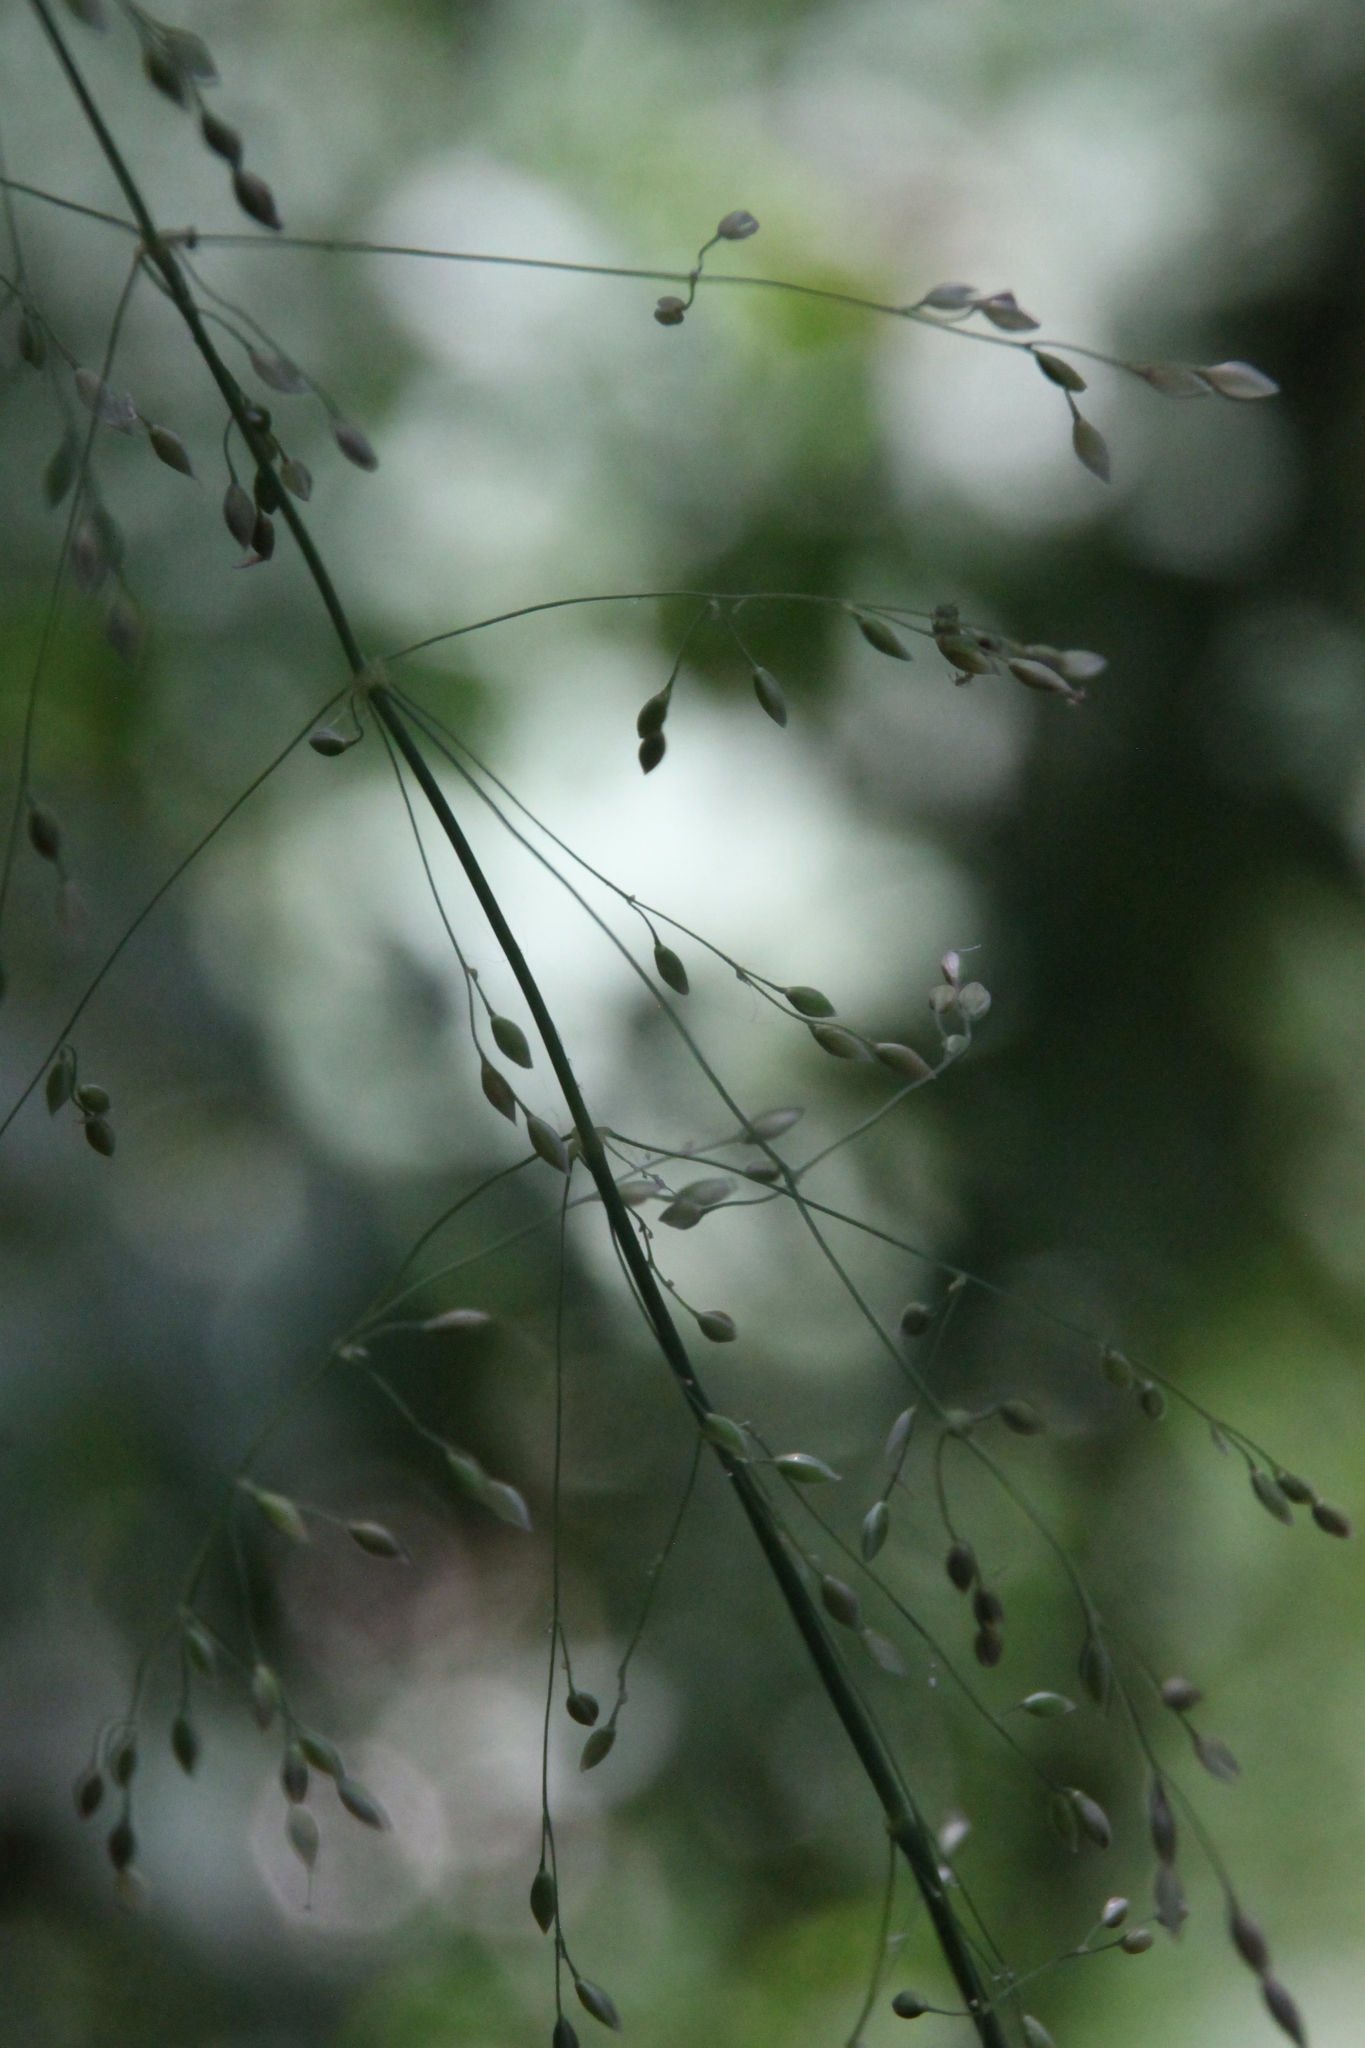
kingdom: Plantae
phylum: Tracheophyta
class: Liliopsida
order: Poales
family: Poaceae
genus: Milium
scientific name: Milium effusum
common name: Wood millet
